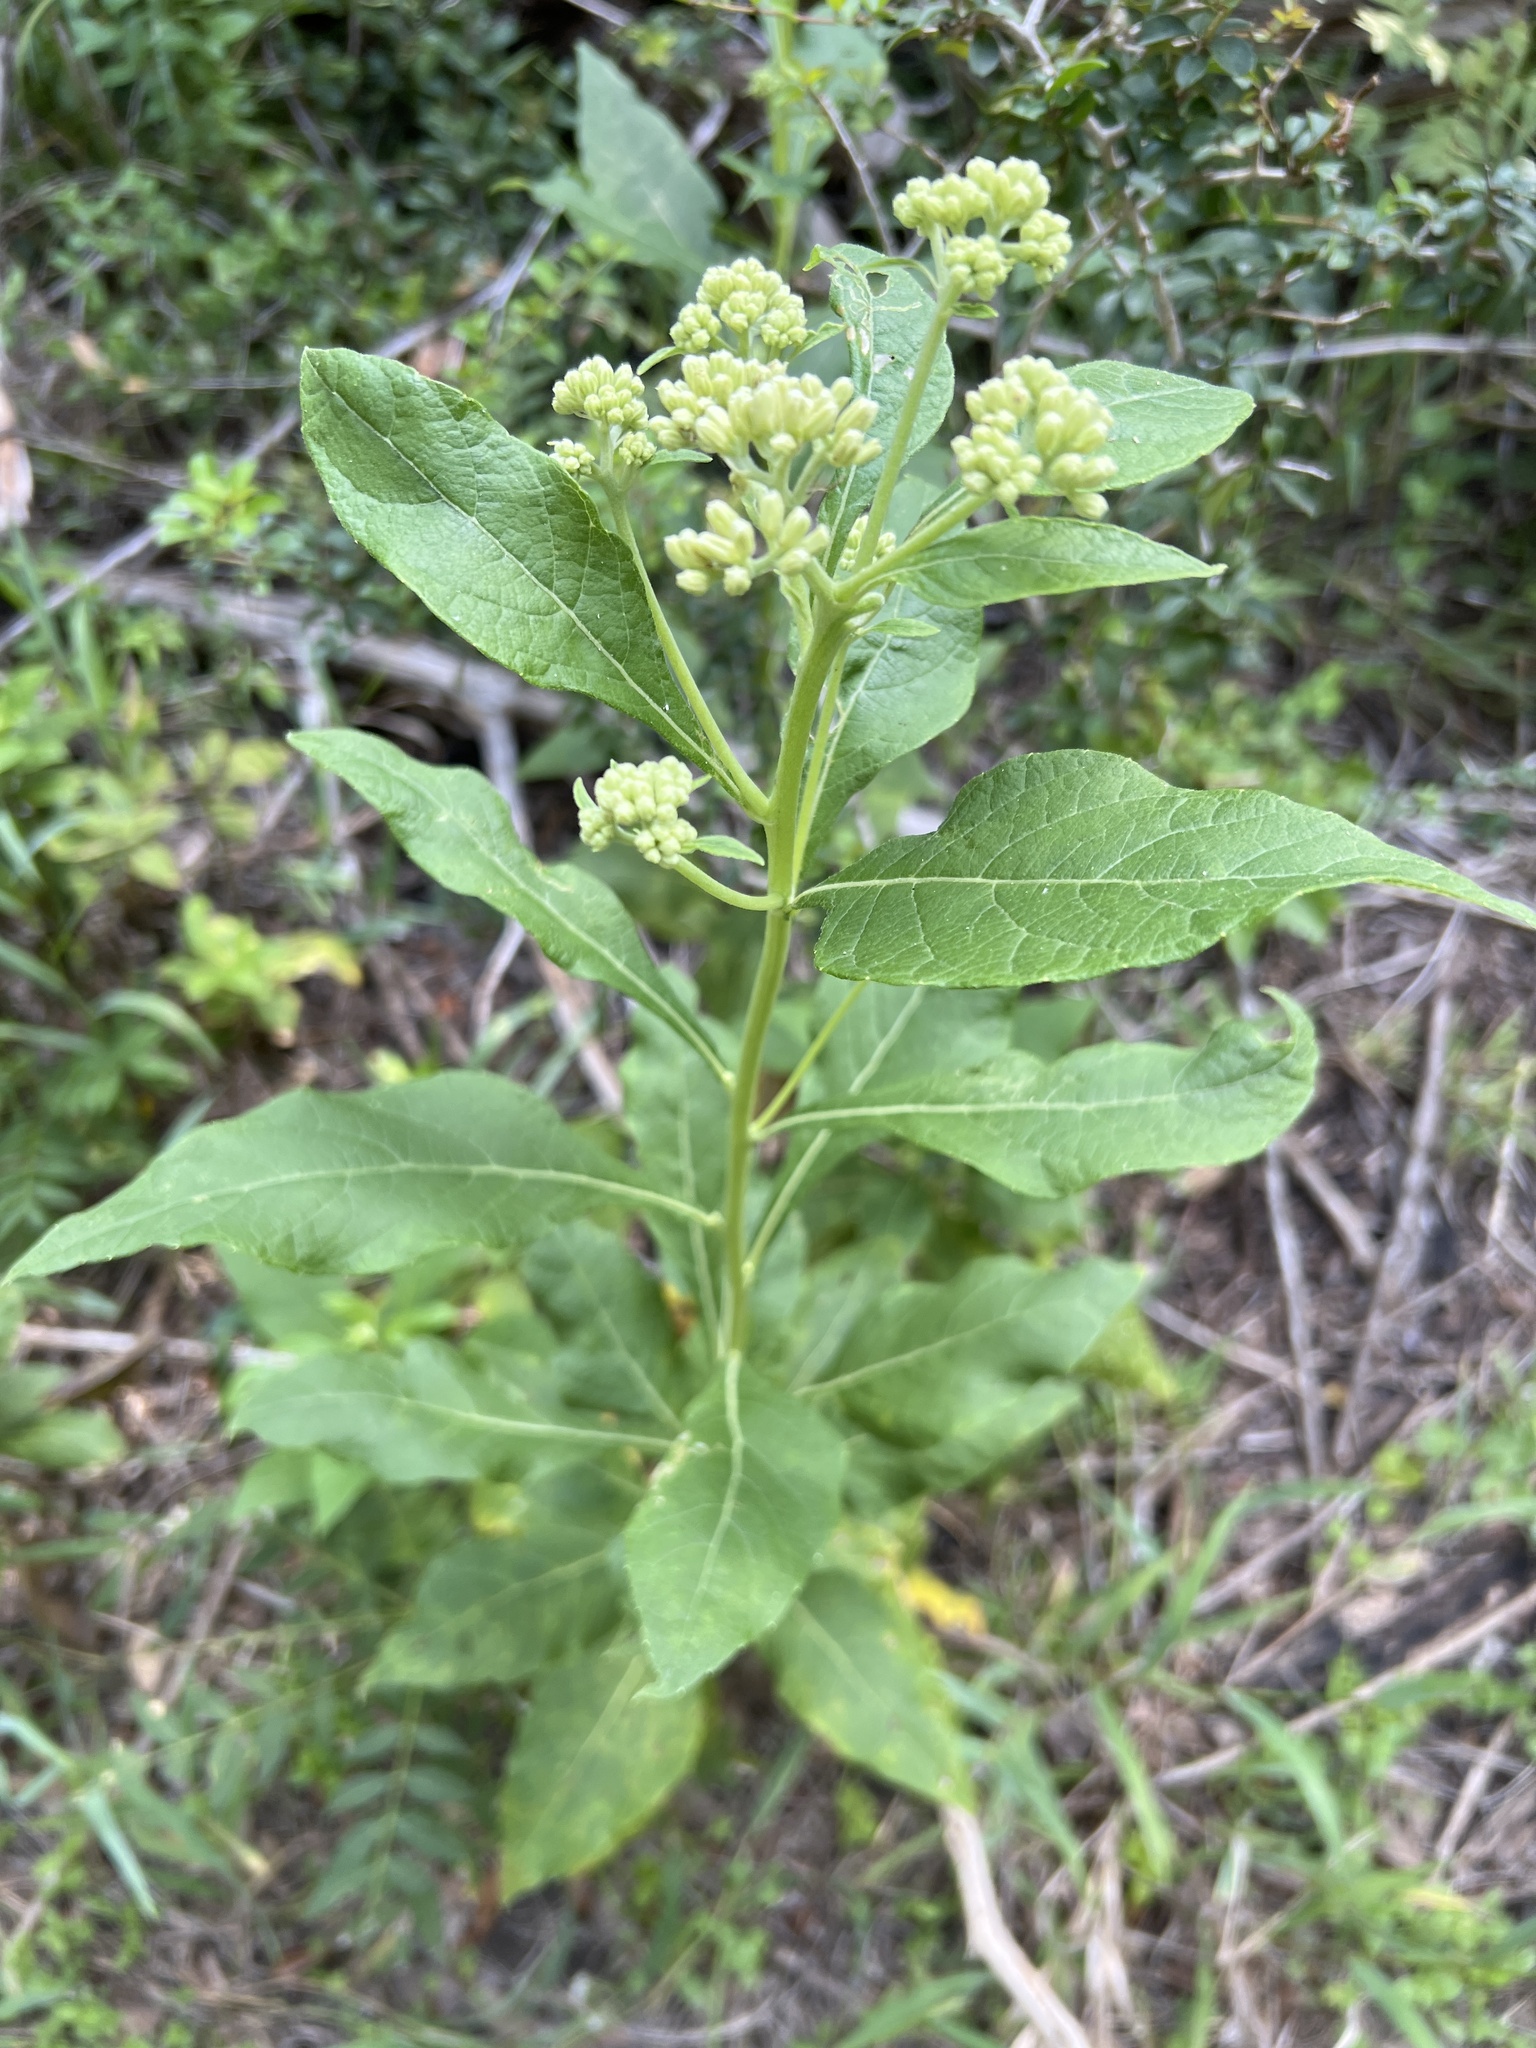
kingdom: Plantae
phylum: Tracheophyta
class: Magnoliopsida
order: Asterales
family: Asteraceae
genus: Verbesina
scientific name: Verbesina virginica
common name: Frostweed
